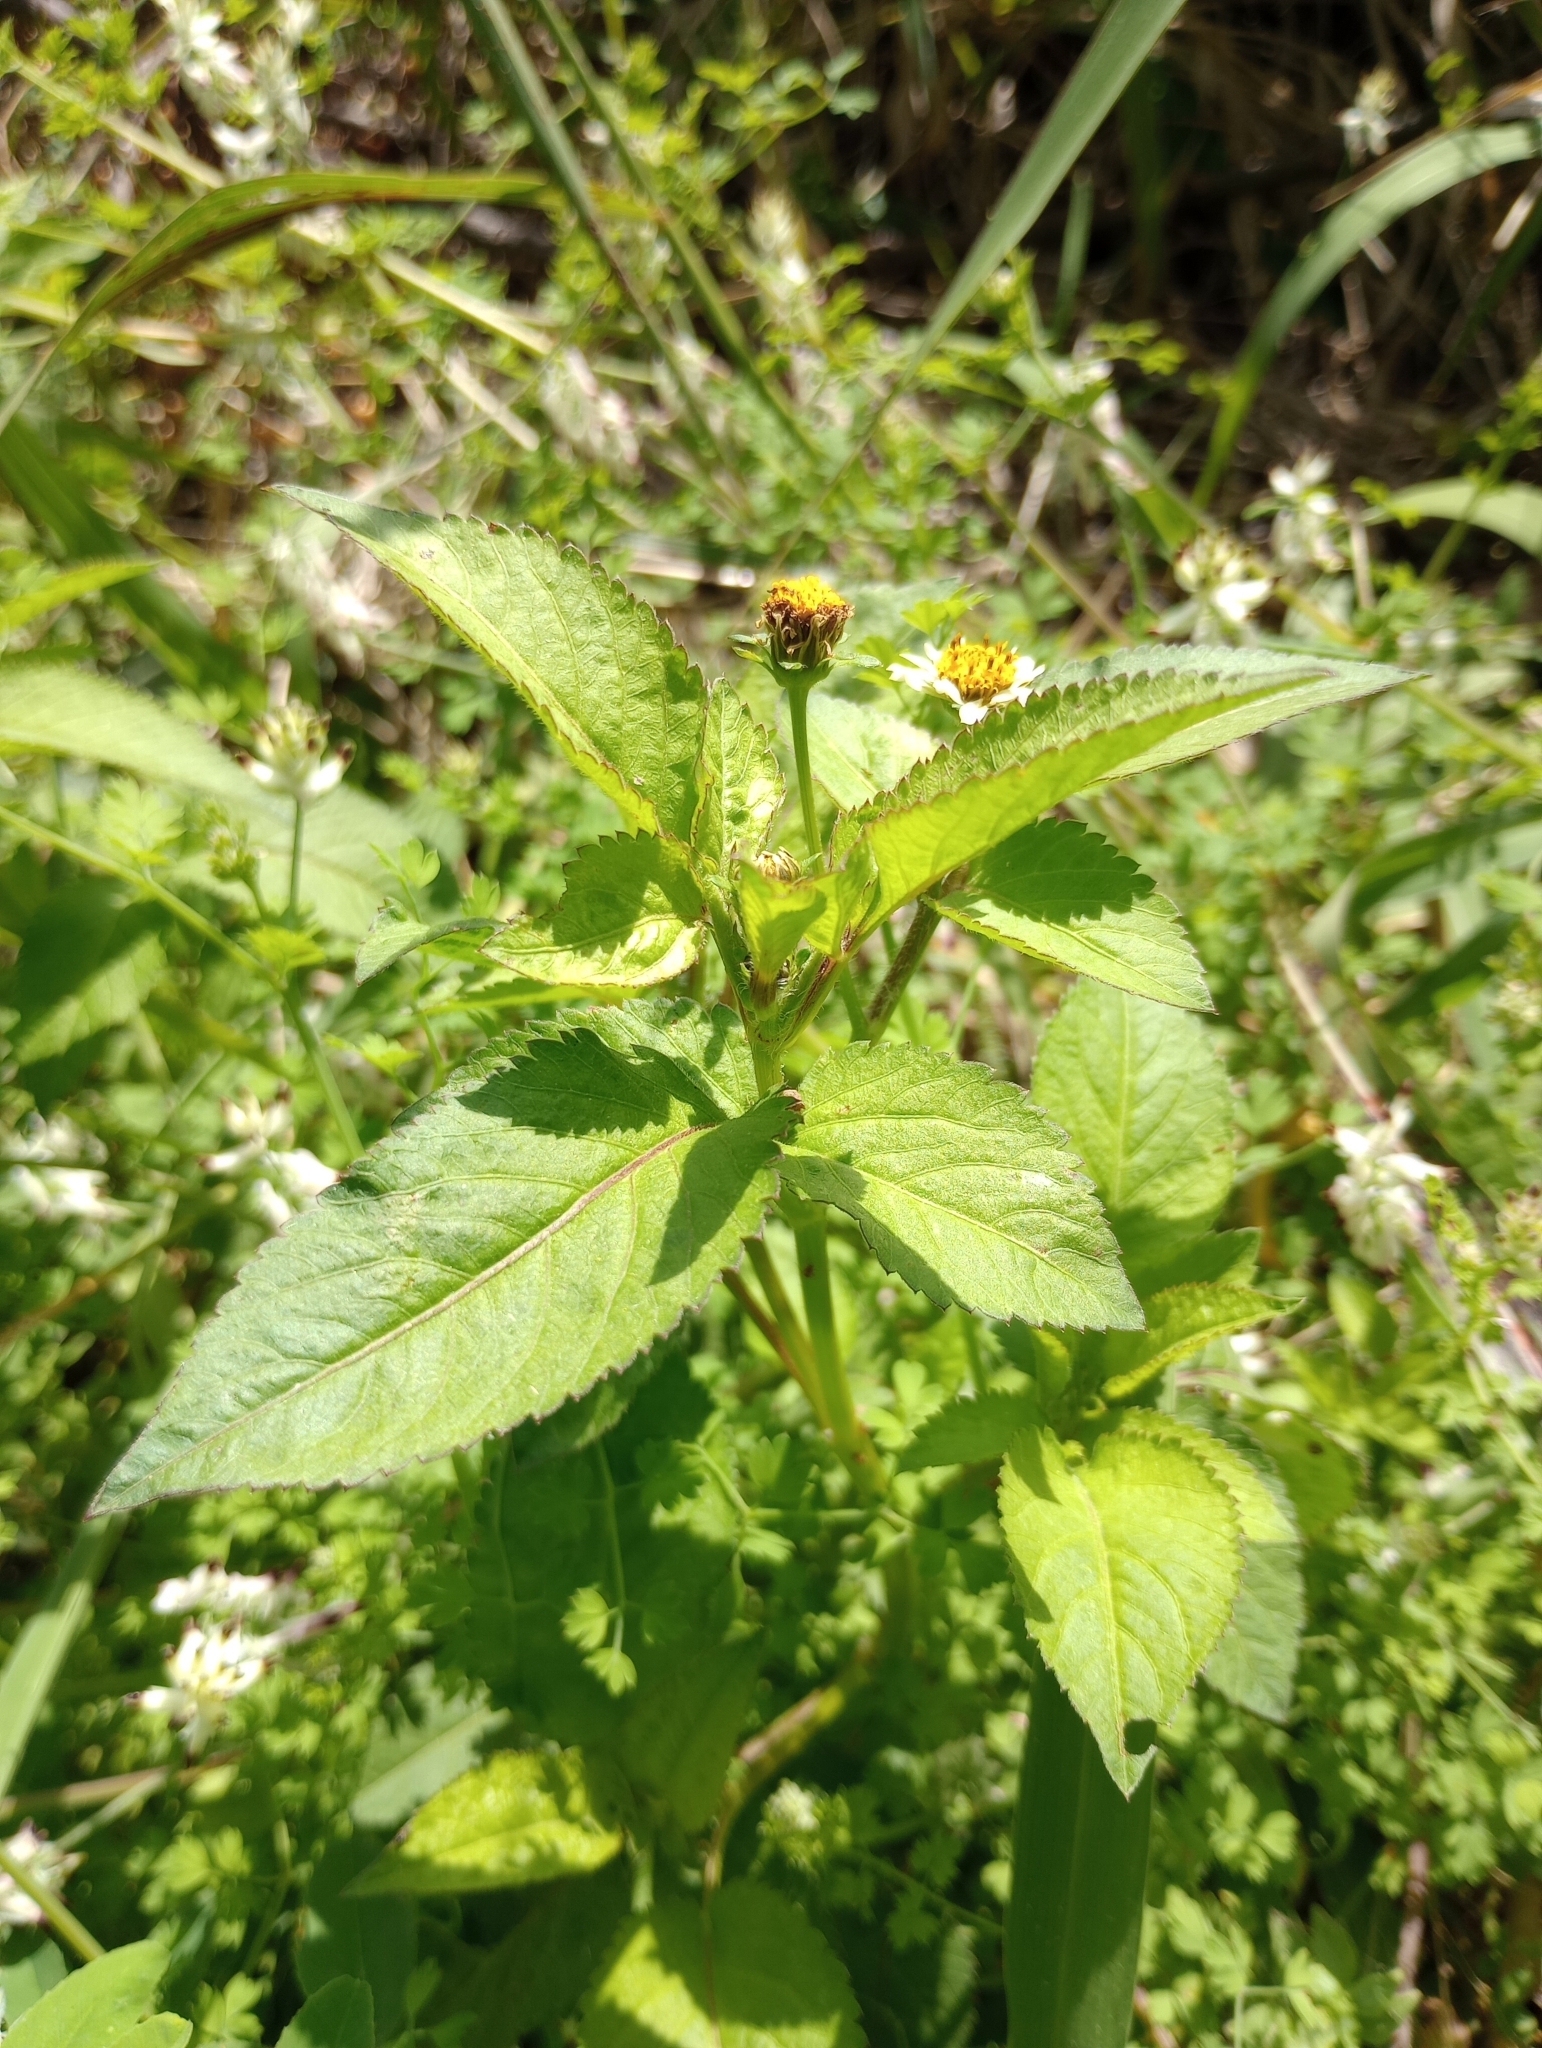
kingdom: Plantae
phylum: Tracheophyta
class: Magnoliopsida
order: Asterales
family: Asteraceae
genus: Bidens
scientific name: Bidens pilosa
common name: Black-jack
